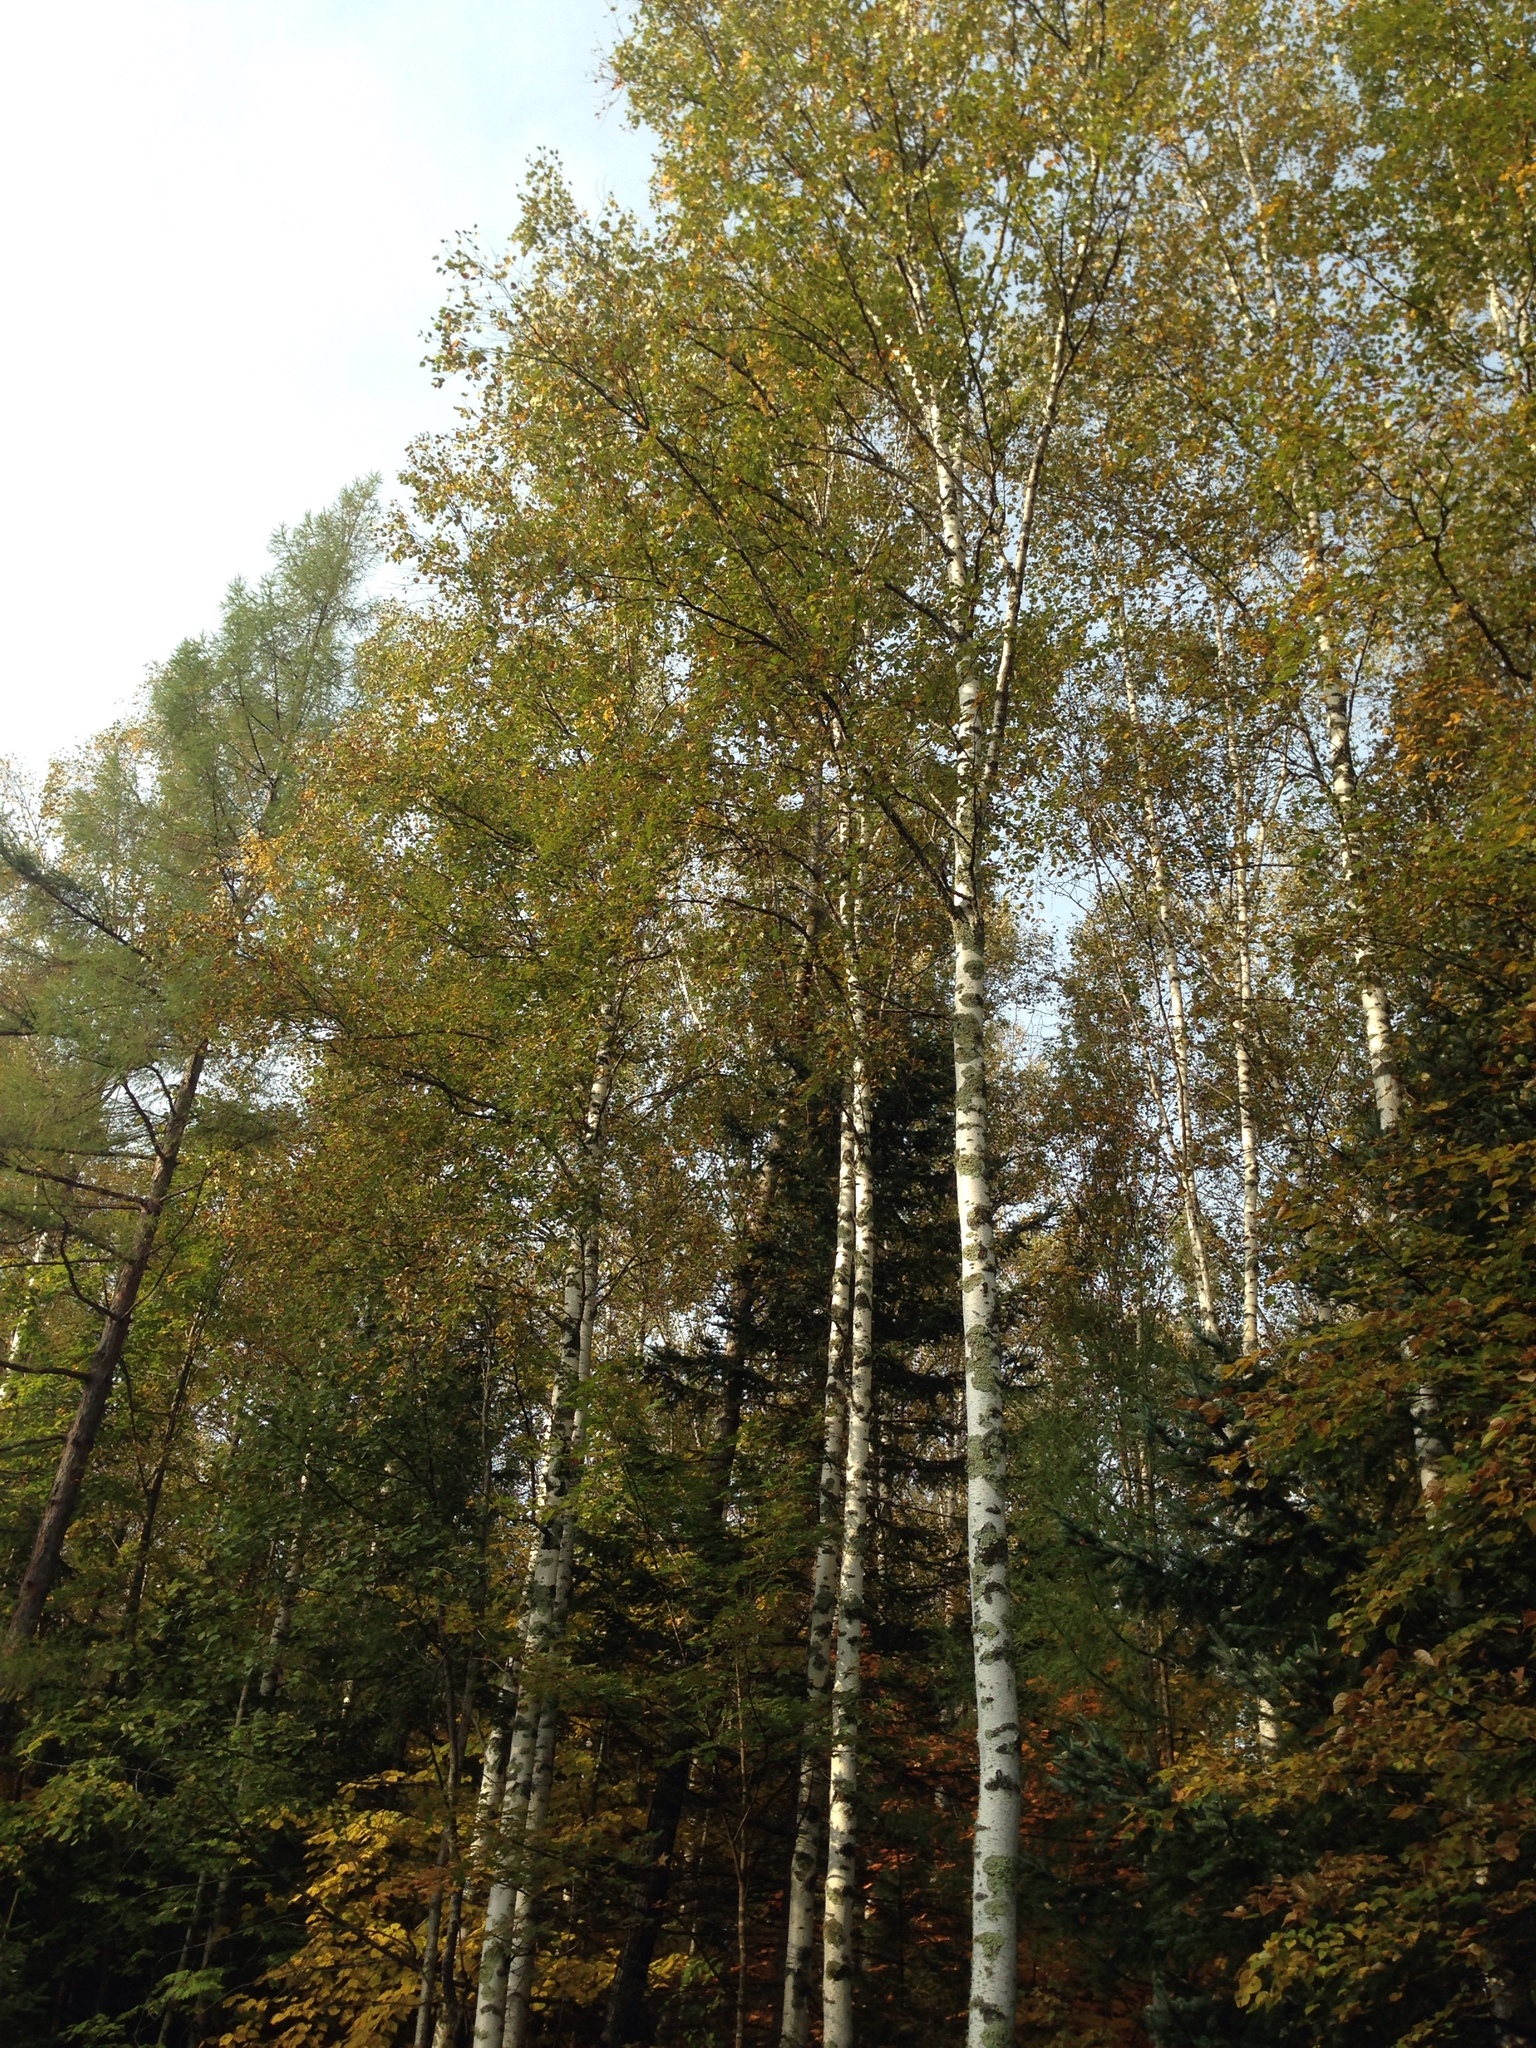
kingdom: Plantae
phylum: Tracheophyta
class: Magnoliopsida
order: Fagales
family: Betulaceae
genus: Betula
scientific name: Betula pendula
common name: Silver birch
